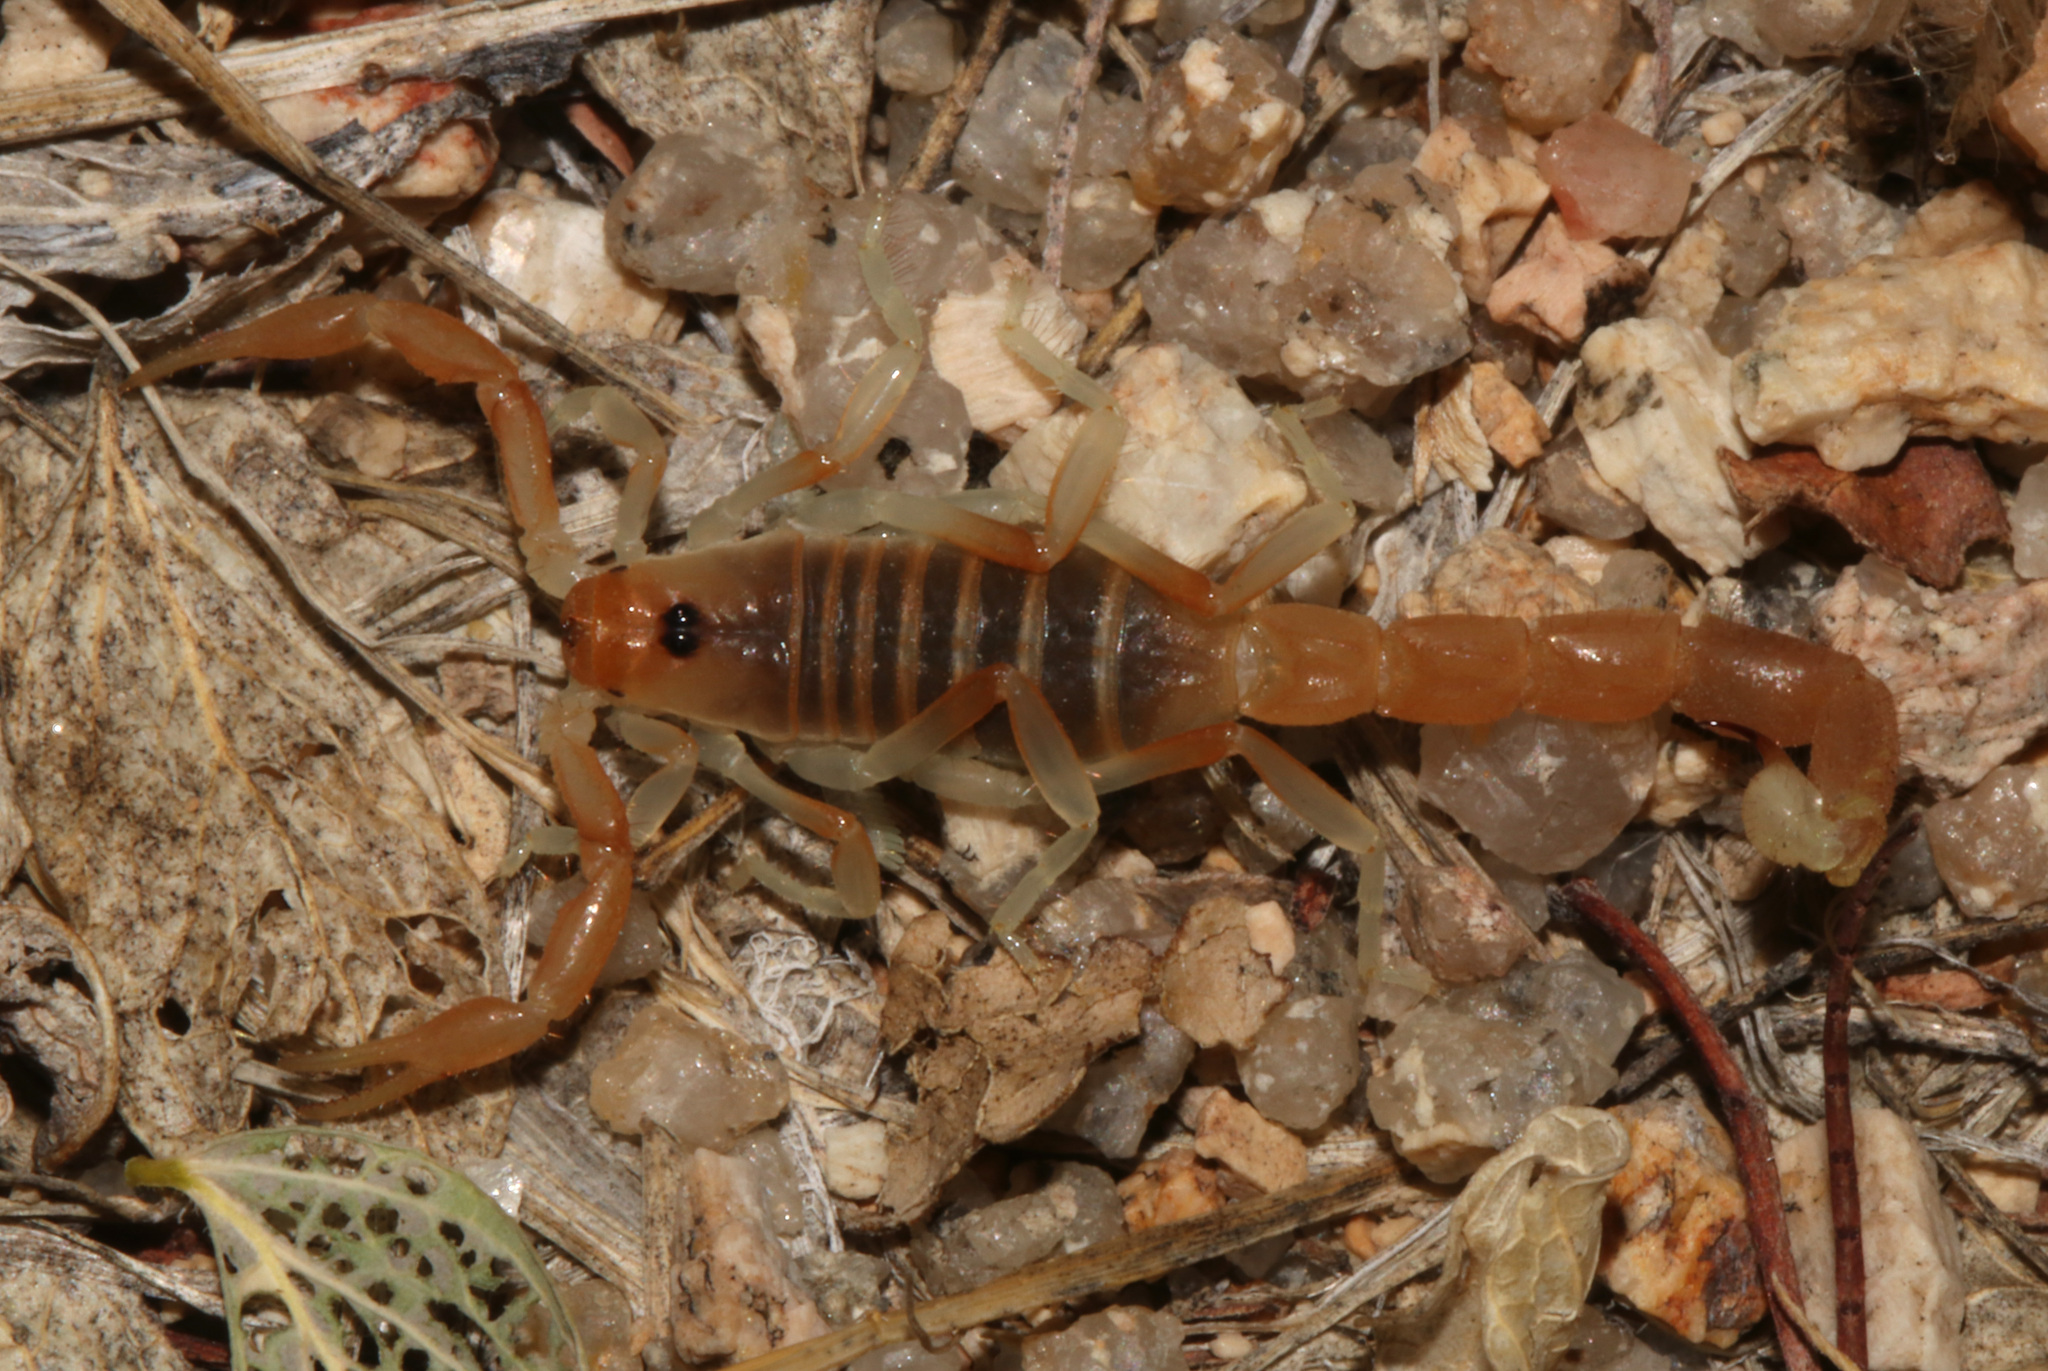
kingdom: Animalia
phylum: Arthropoda
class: Arachnida
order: Scorpiones
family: Buthidae
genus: Parabuthus
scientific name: Parabuthus brevimanus
